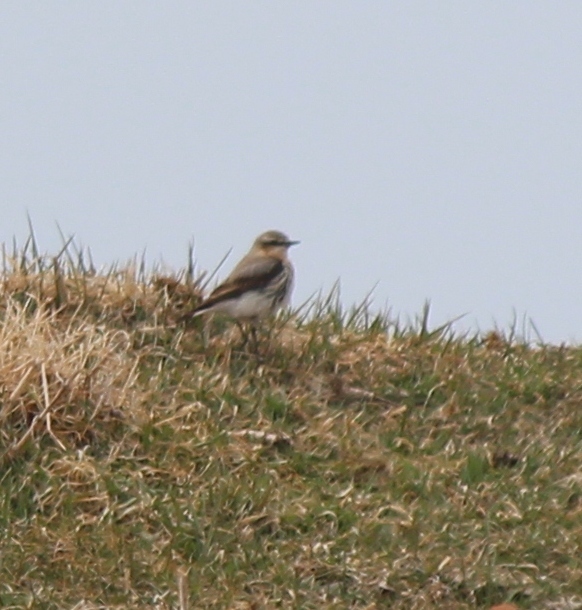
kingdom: Animalia
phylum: Chordata
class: Aves
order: Passeriformes
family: Muscicapidae
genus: Oenanthe
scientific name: Oenanthe oenanthe
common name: Northern wheatear
